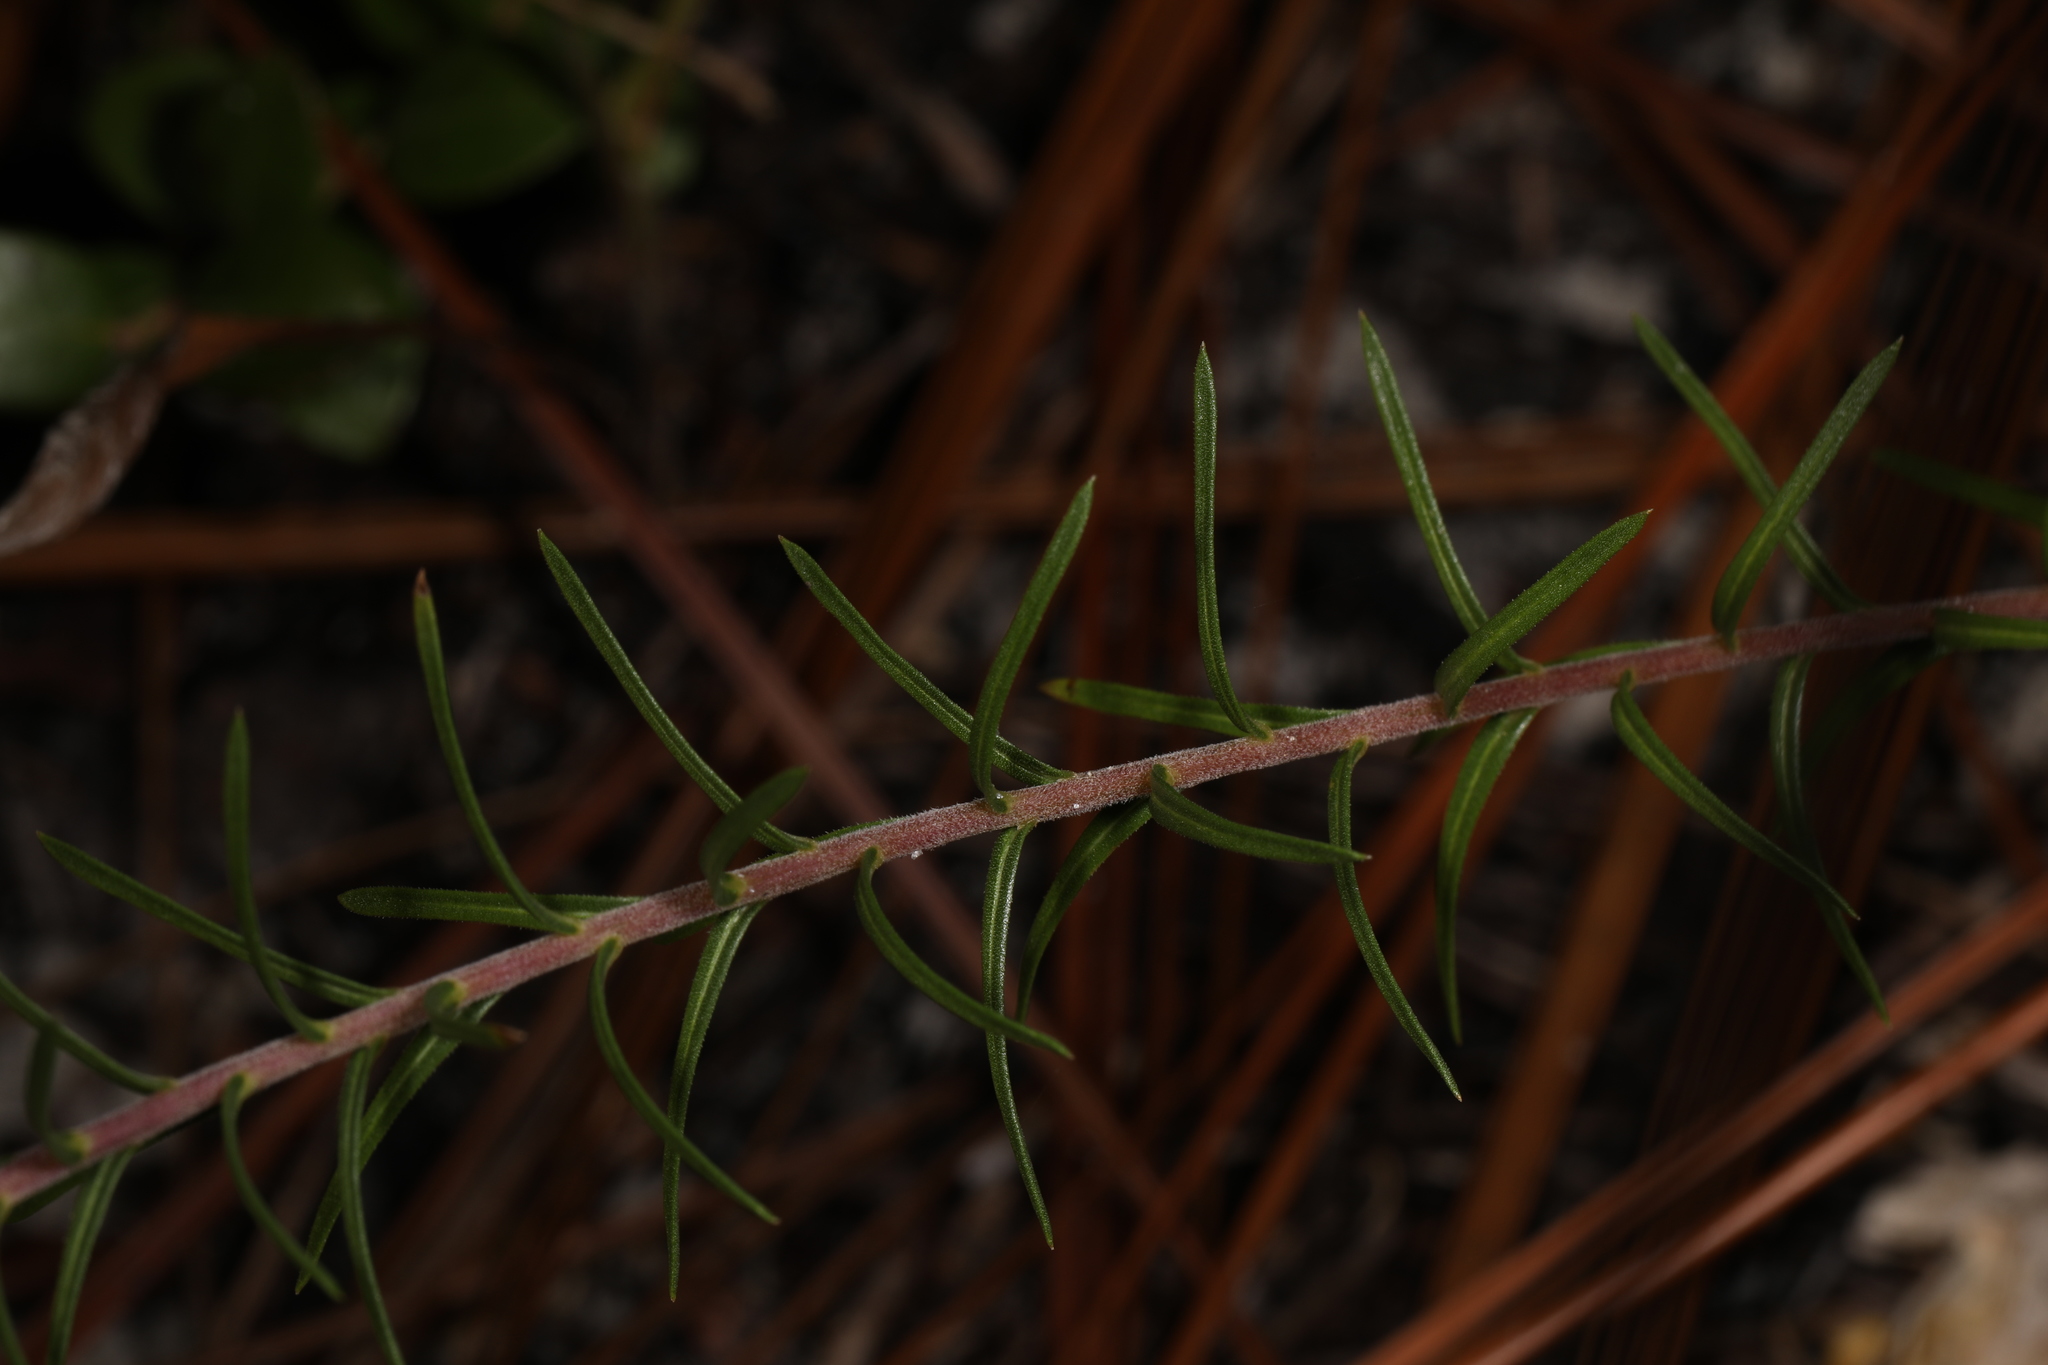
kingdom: Plantae
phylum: Tracheophyta
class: Magnoliopsida
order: Asterales
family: Asteraceae
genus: Ionactis
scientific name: Ionactis linariifolia
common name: Flax-leaf aster
